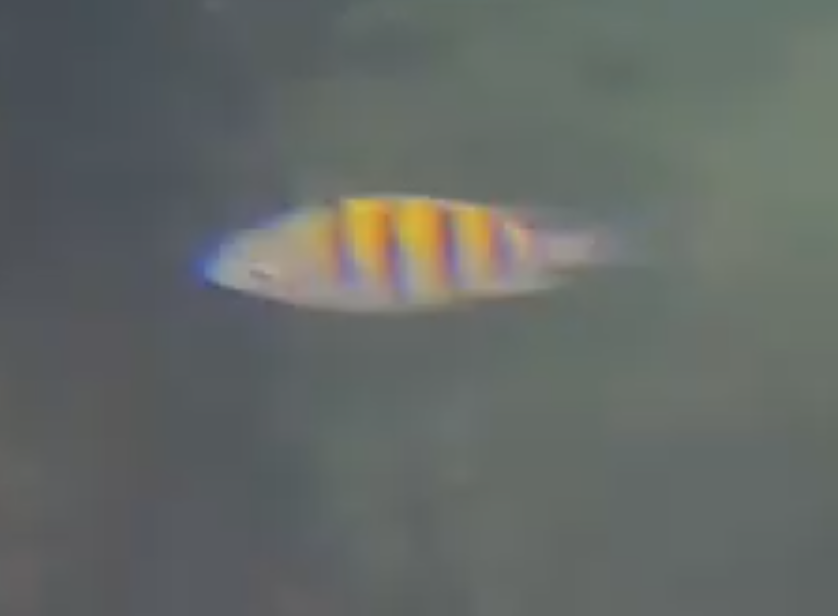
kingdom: Animalia
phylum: Chordata
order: Perciformes
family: Pomacentridae
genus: Abudefduf
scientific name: Abudefduf saxatilis
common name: Sergeant major
